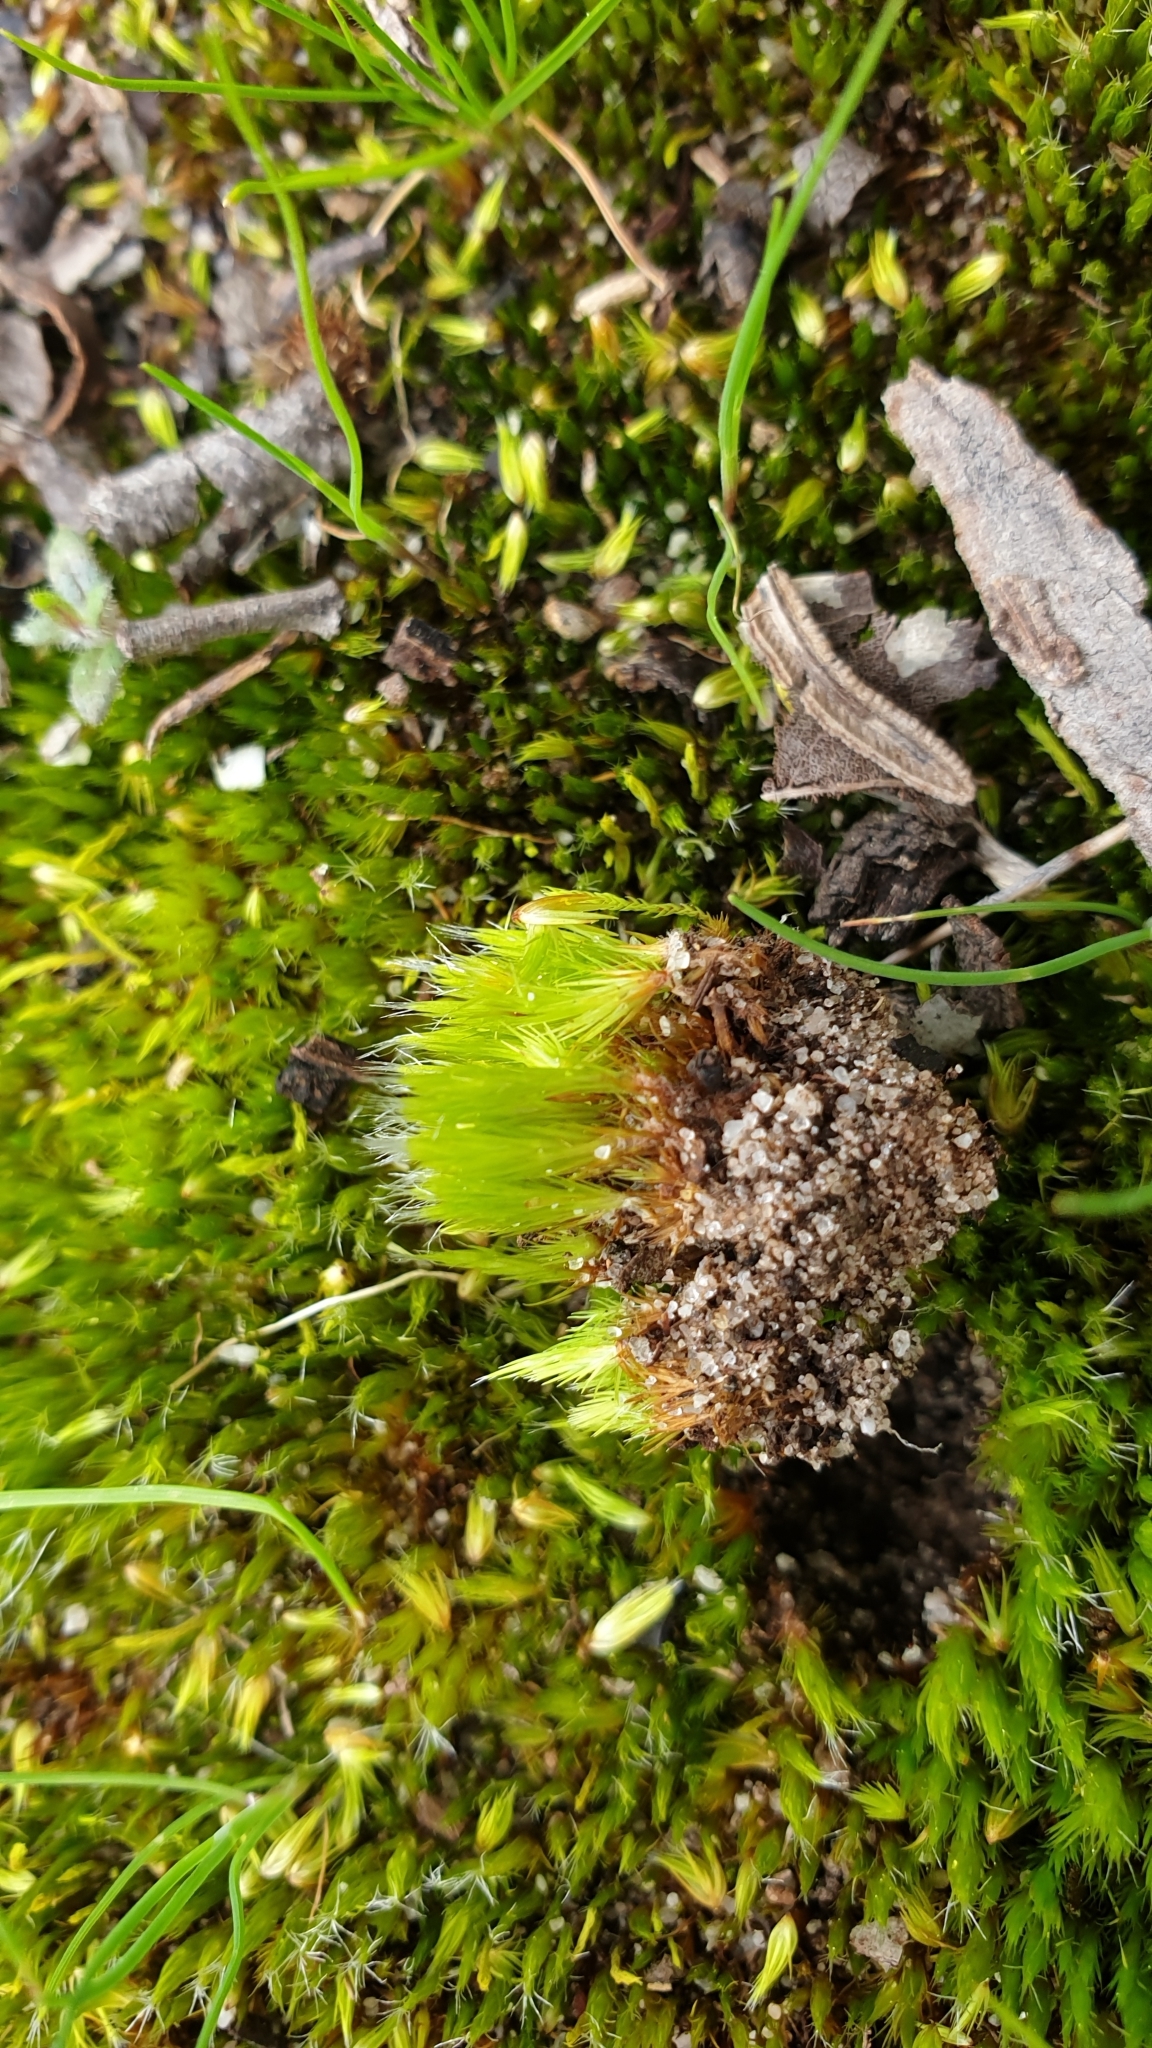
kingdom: Plantae
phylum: Bryophyta
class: Bryopsida
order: Dicranales
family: Leucobryaceae
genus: Campylopus
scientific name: Campylopus introflexus
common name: Heath star moss
